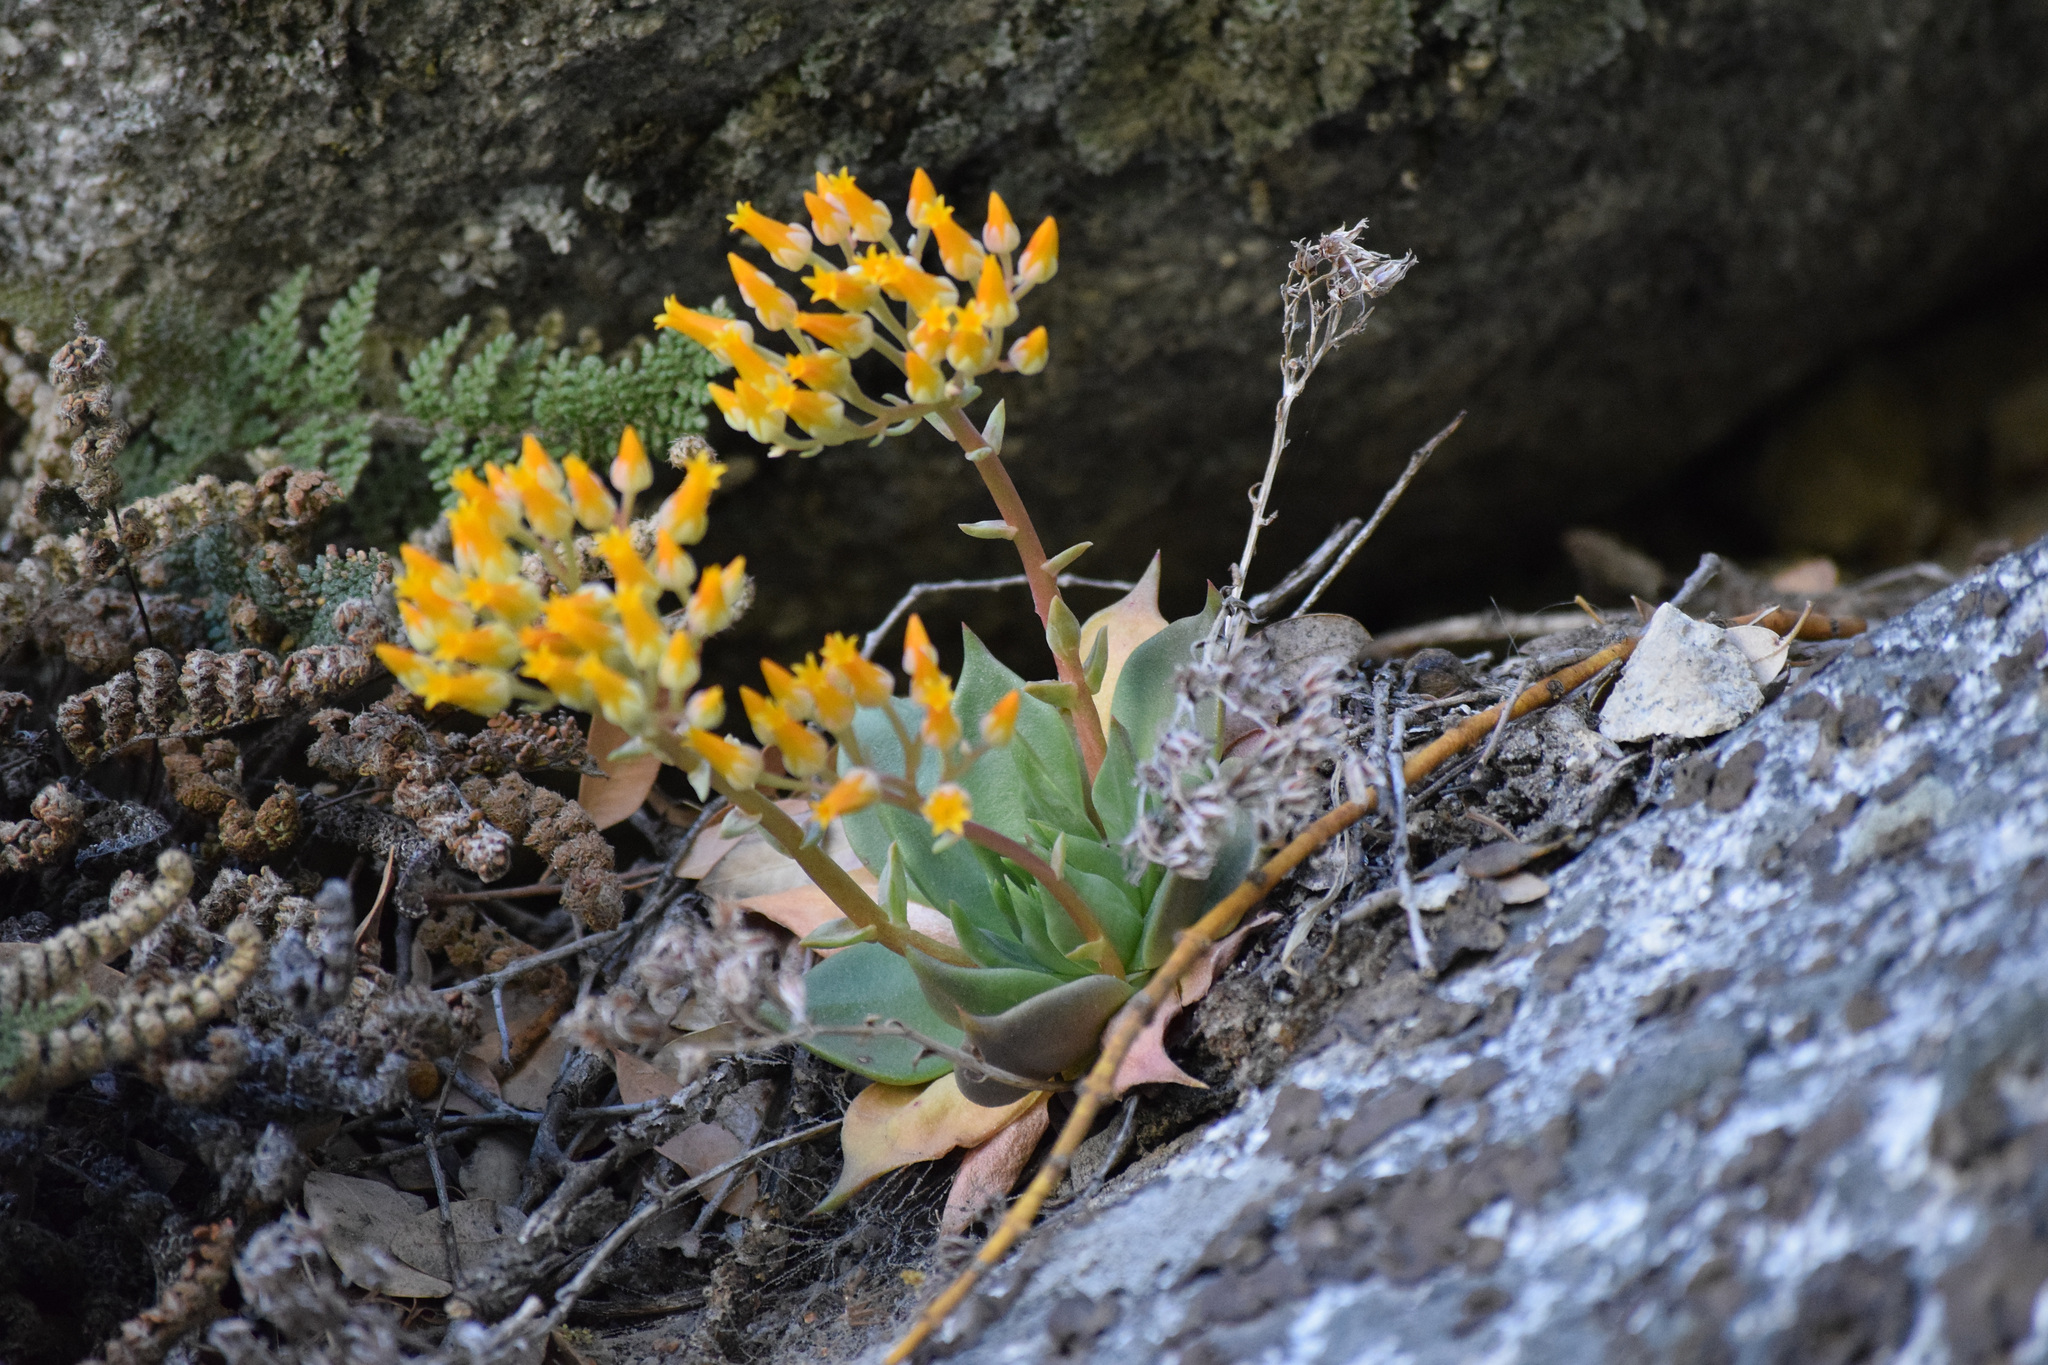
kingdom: Plantae
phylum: Tracheophyta
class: Magnoliopsida
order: Saxifragales
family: Crassulaceae
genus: Dudleya
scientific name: Dudleya cymosa
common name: Canyon dudleya
